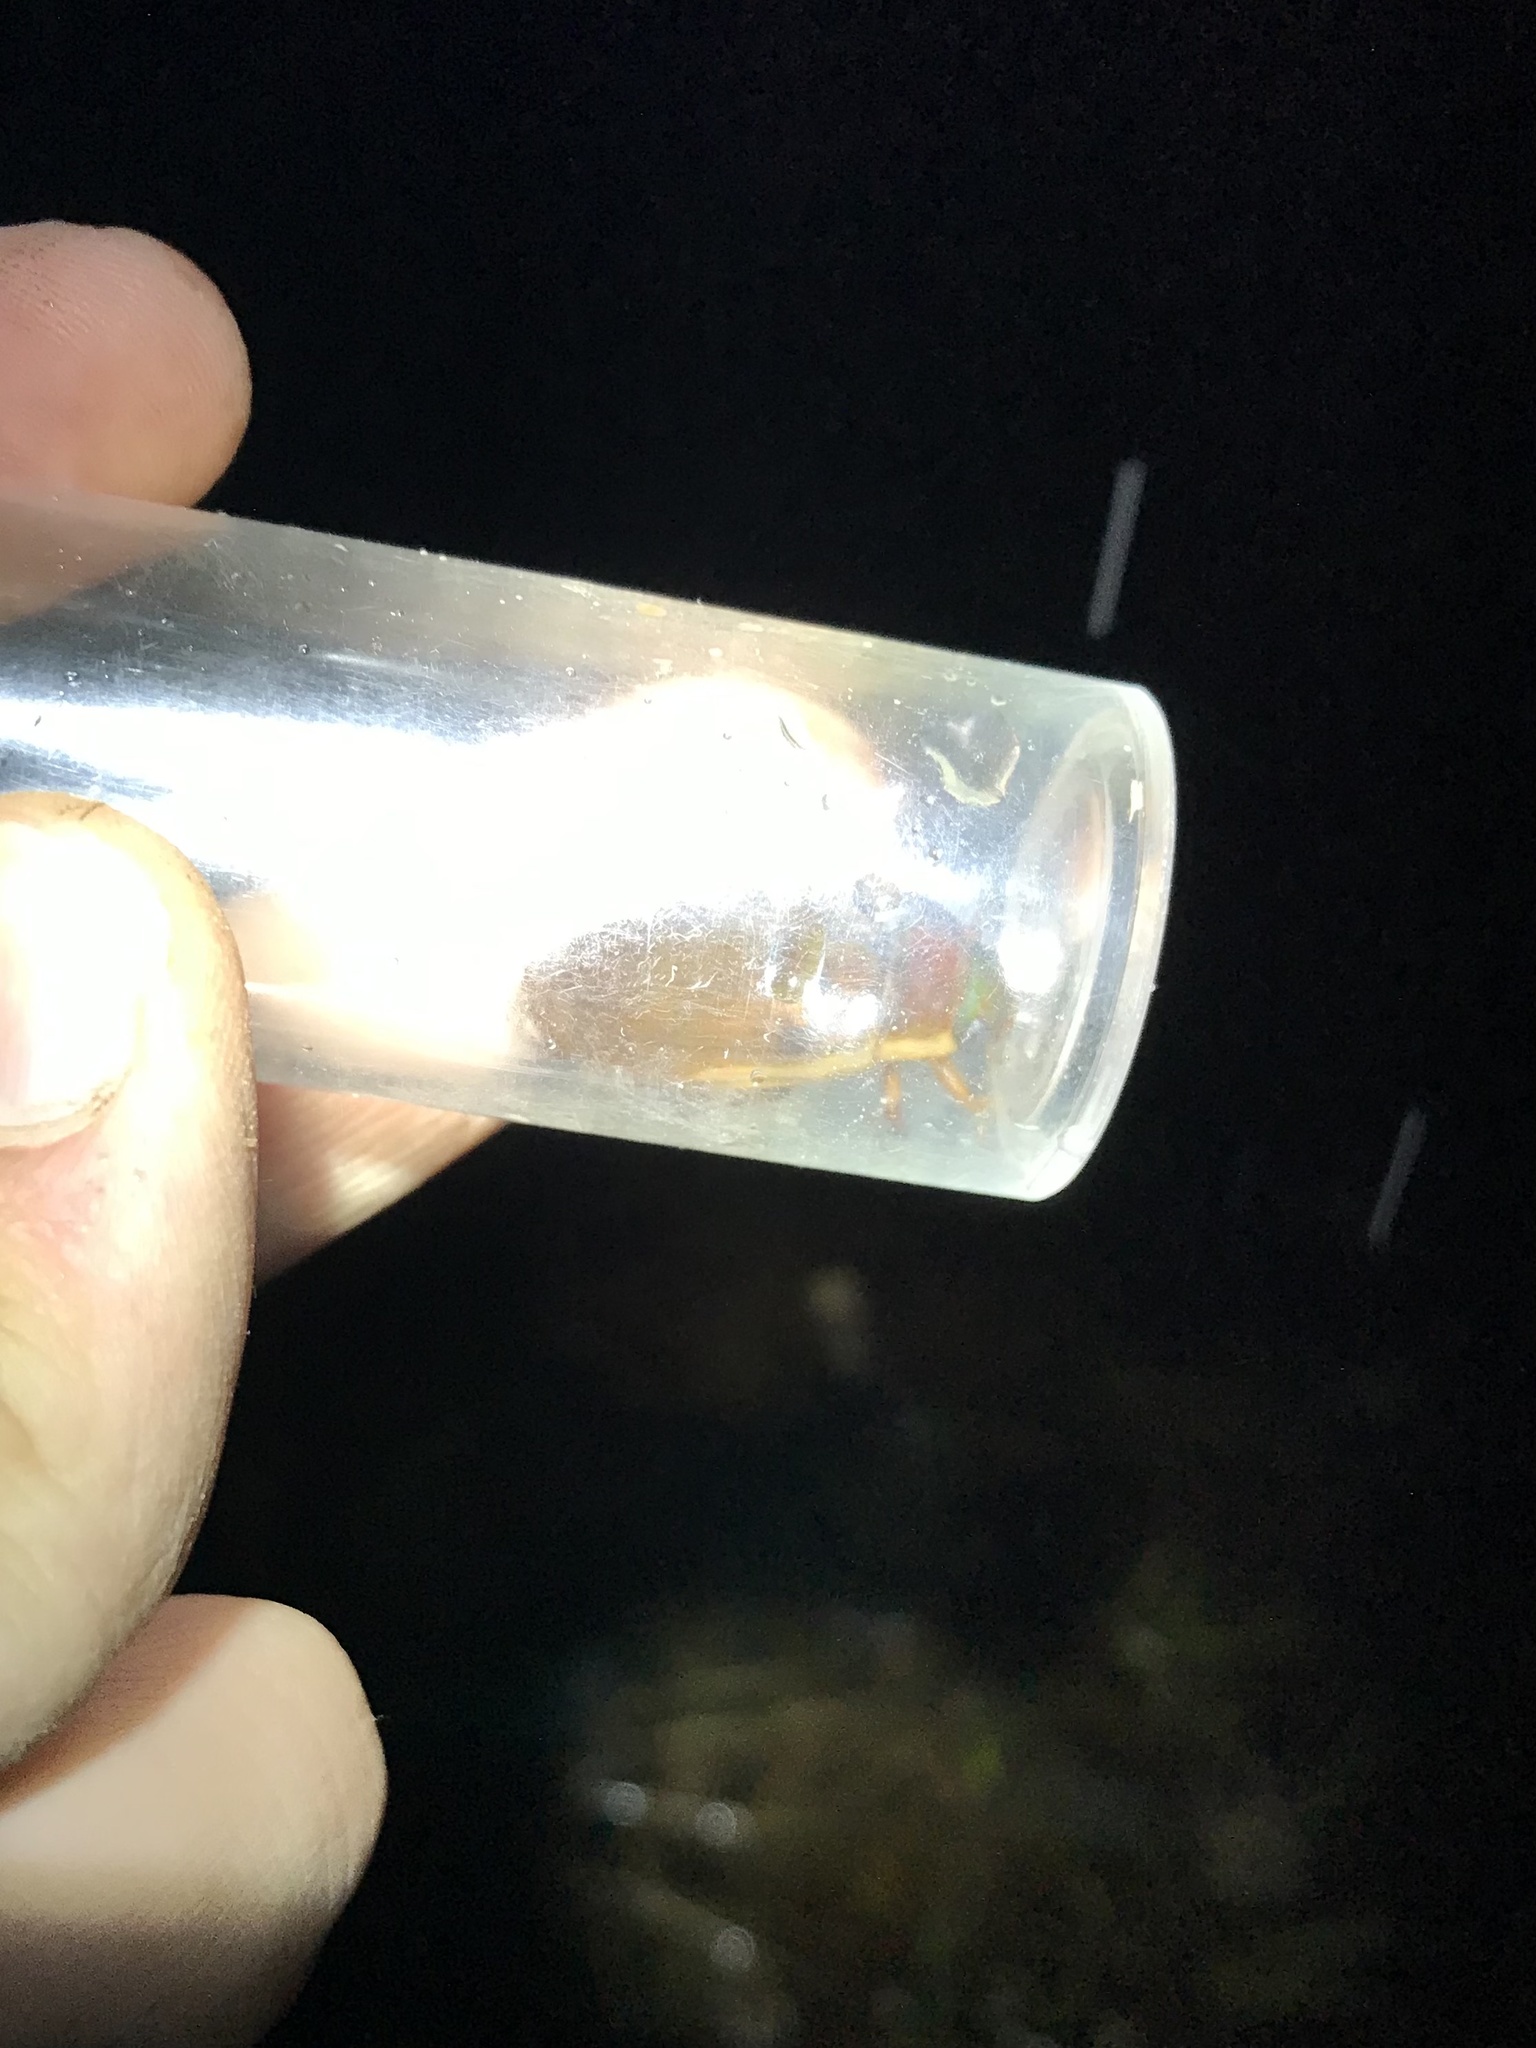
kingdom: Animalia
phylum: Arthropoda
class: Insecta
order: Coleoptera
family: Dytiscidae
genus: Dytiscus
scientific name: Dytiscus fasciventris
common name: Understriped diving beetle
